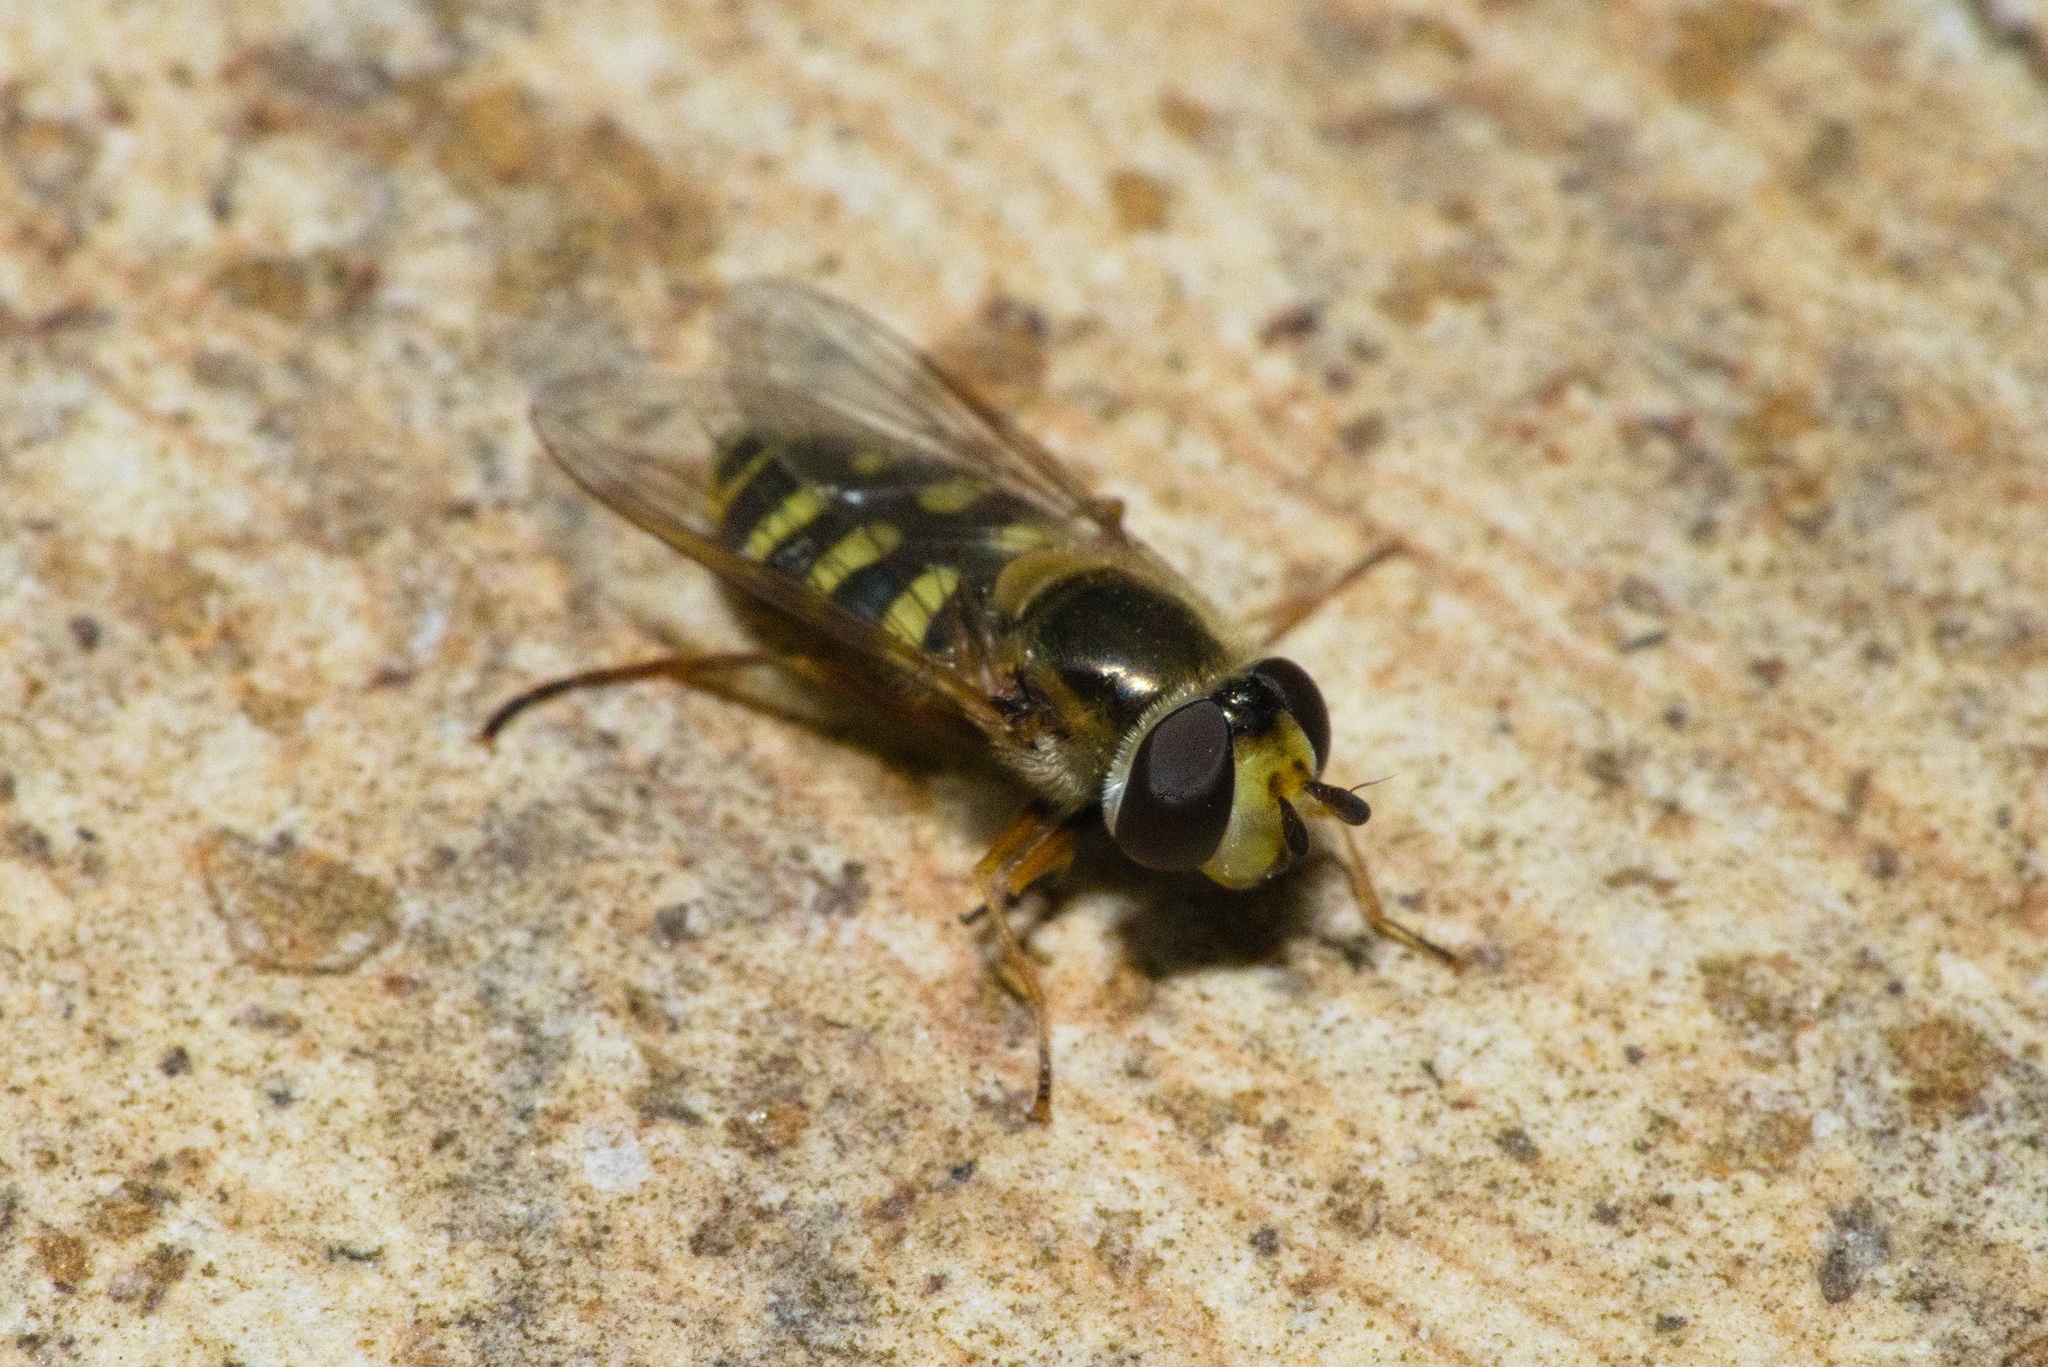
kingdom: Animalia
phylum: Arthropoda
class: Insecta
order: Diptera
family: Syrphidae
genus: Eupeodes
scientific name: Eupeodes corollae
